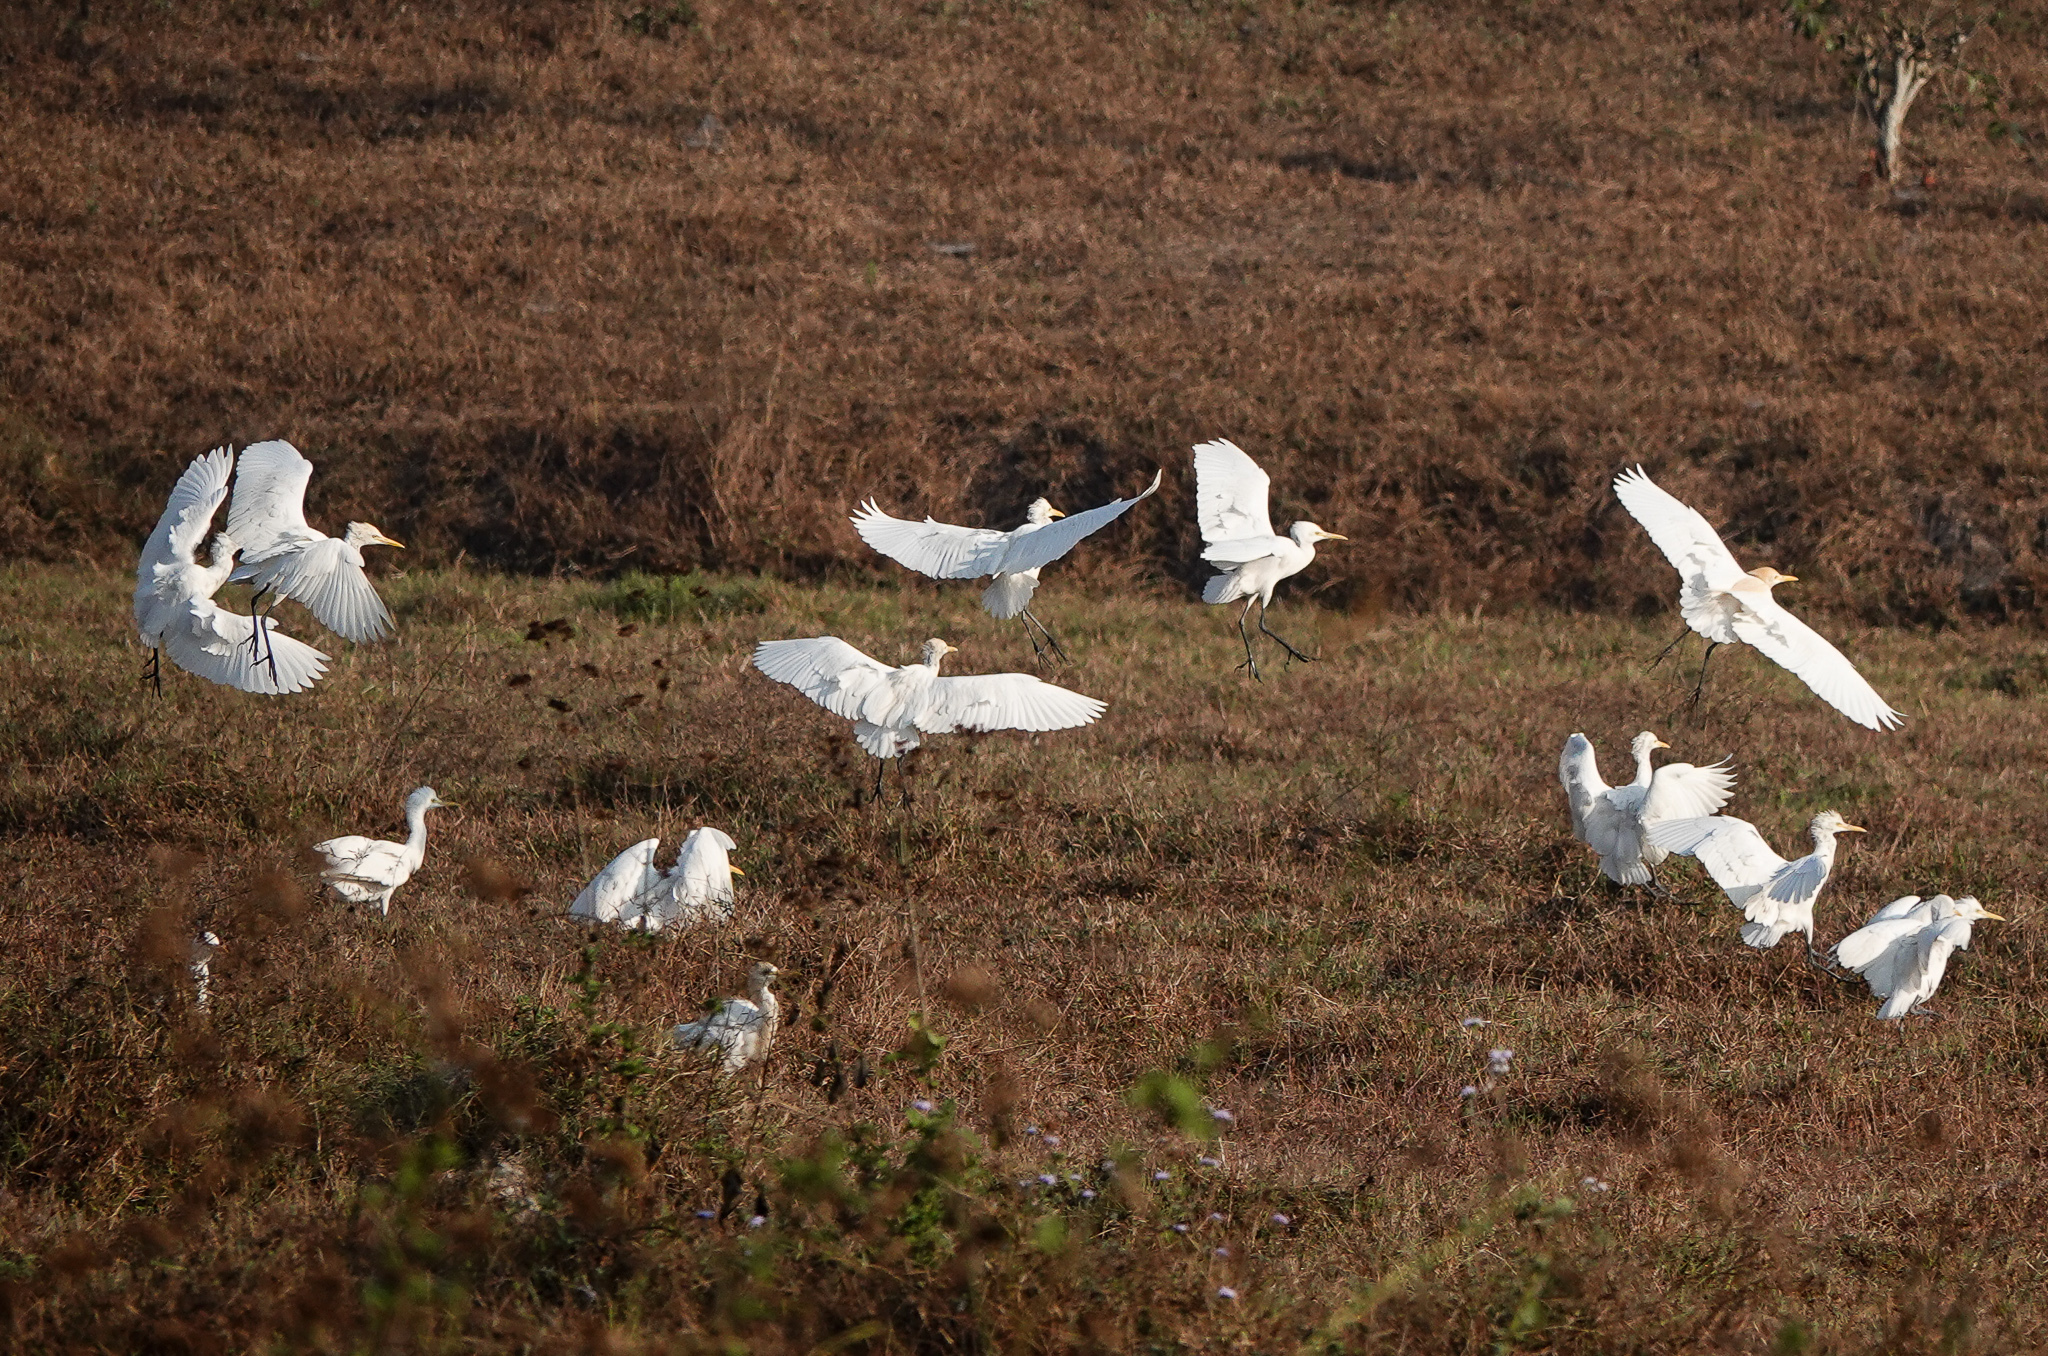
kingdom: Animalia
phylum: Chordata
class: Aves
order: Pelecaniformes
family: Ardeidae
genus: Bubulcus
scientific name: Bubulcus coromandus
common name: Eastern cattle egret
